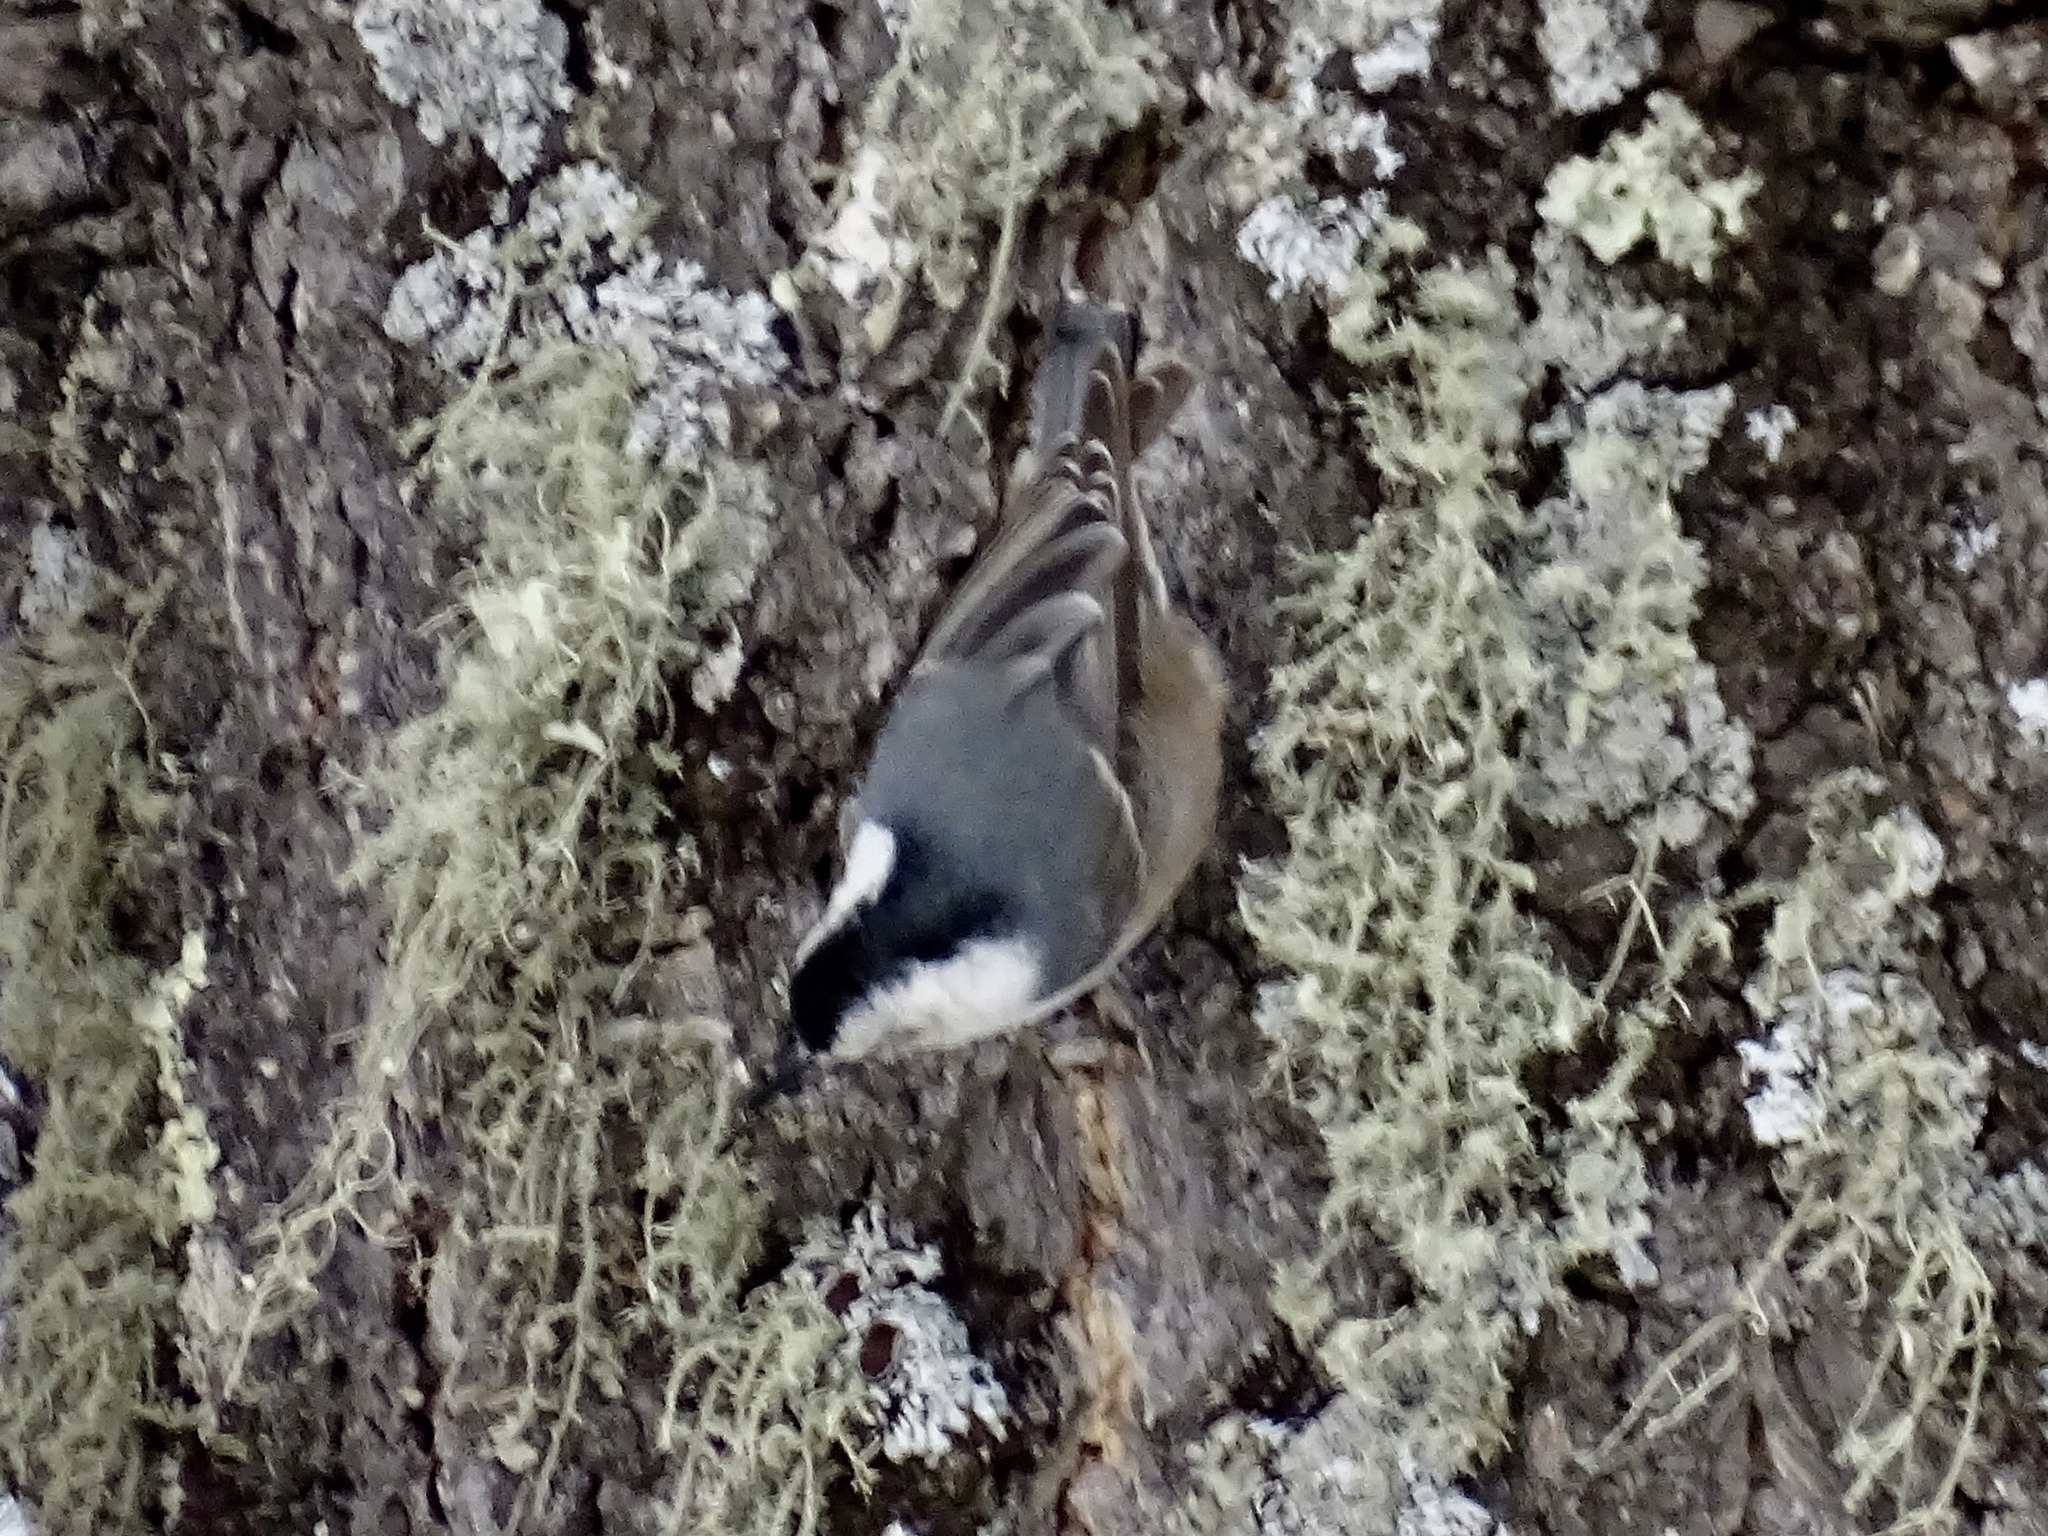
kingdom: Animalia
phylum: Chordata
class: Aves
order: Passeriformes
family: Sittidae
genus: Sitta
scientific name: Sitta carolinensis
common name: White-breasted nuthatch
